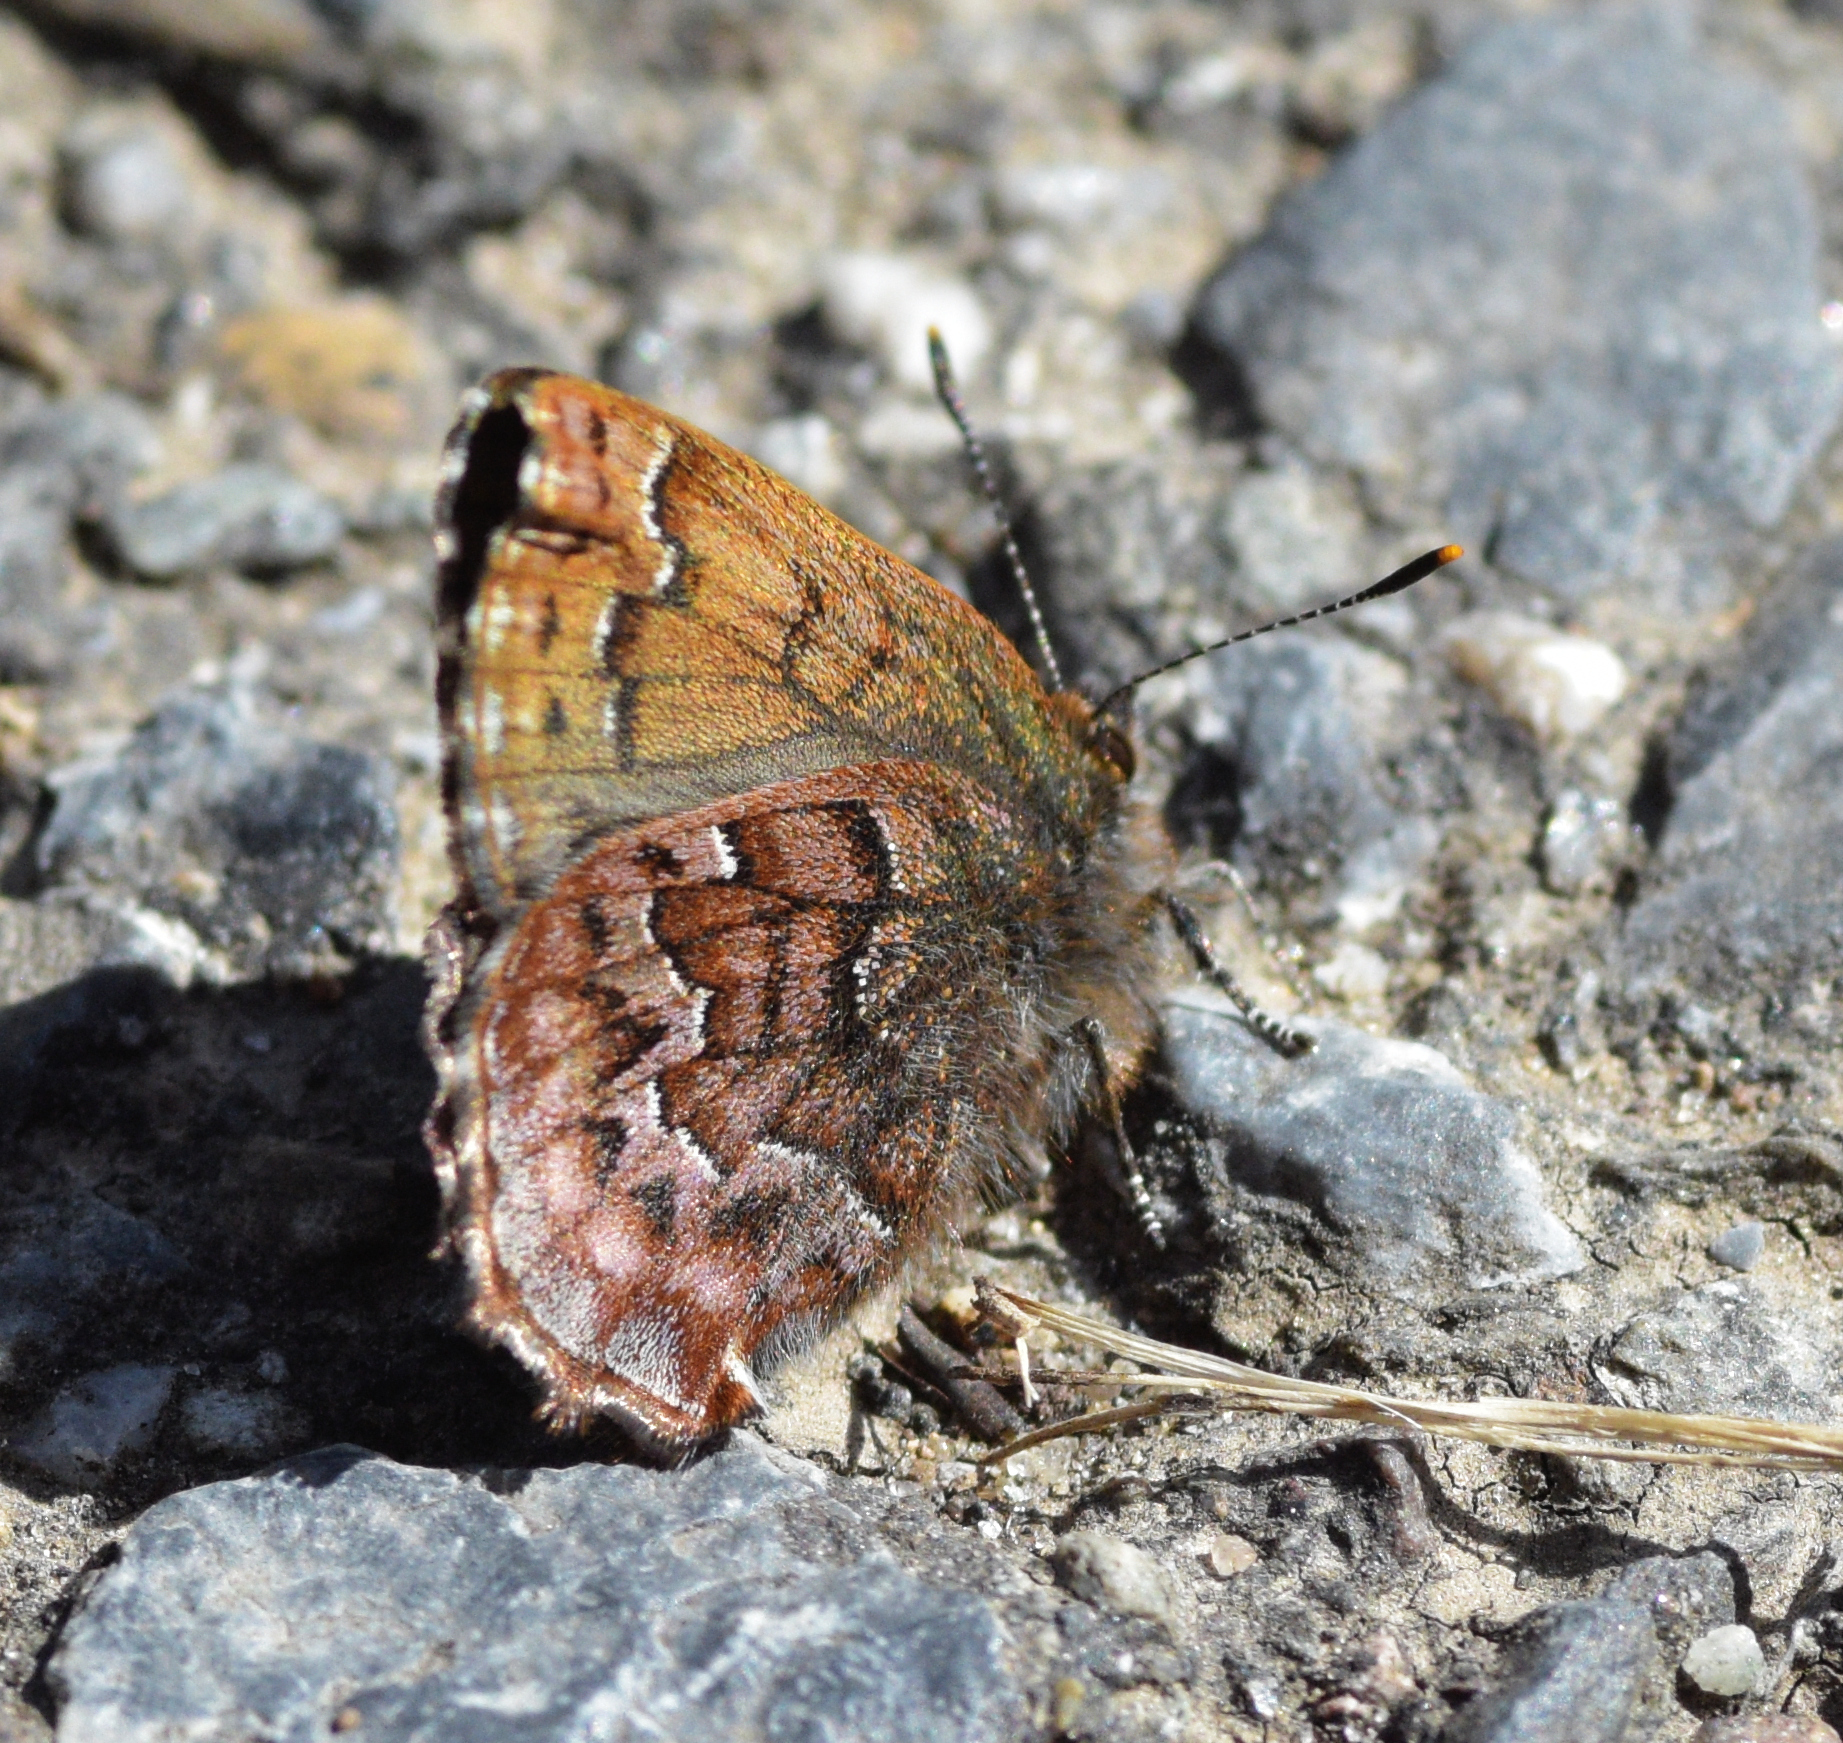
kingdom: Animalia
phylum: Arthropoda
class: Insecta
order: Lepidoptera
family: Lycaenidae
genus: Incisalia
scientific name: Incisalia niphon
